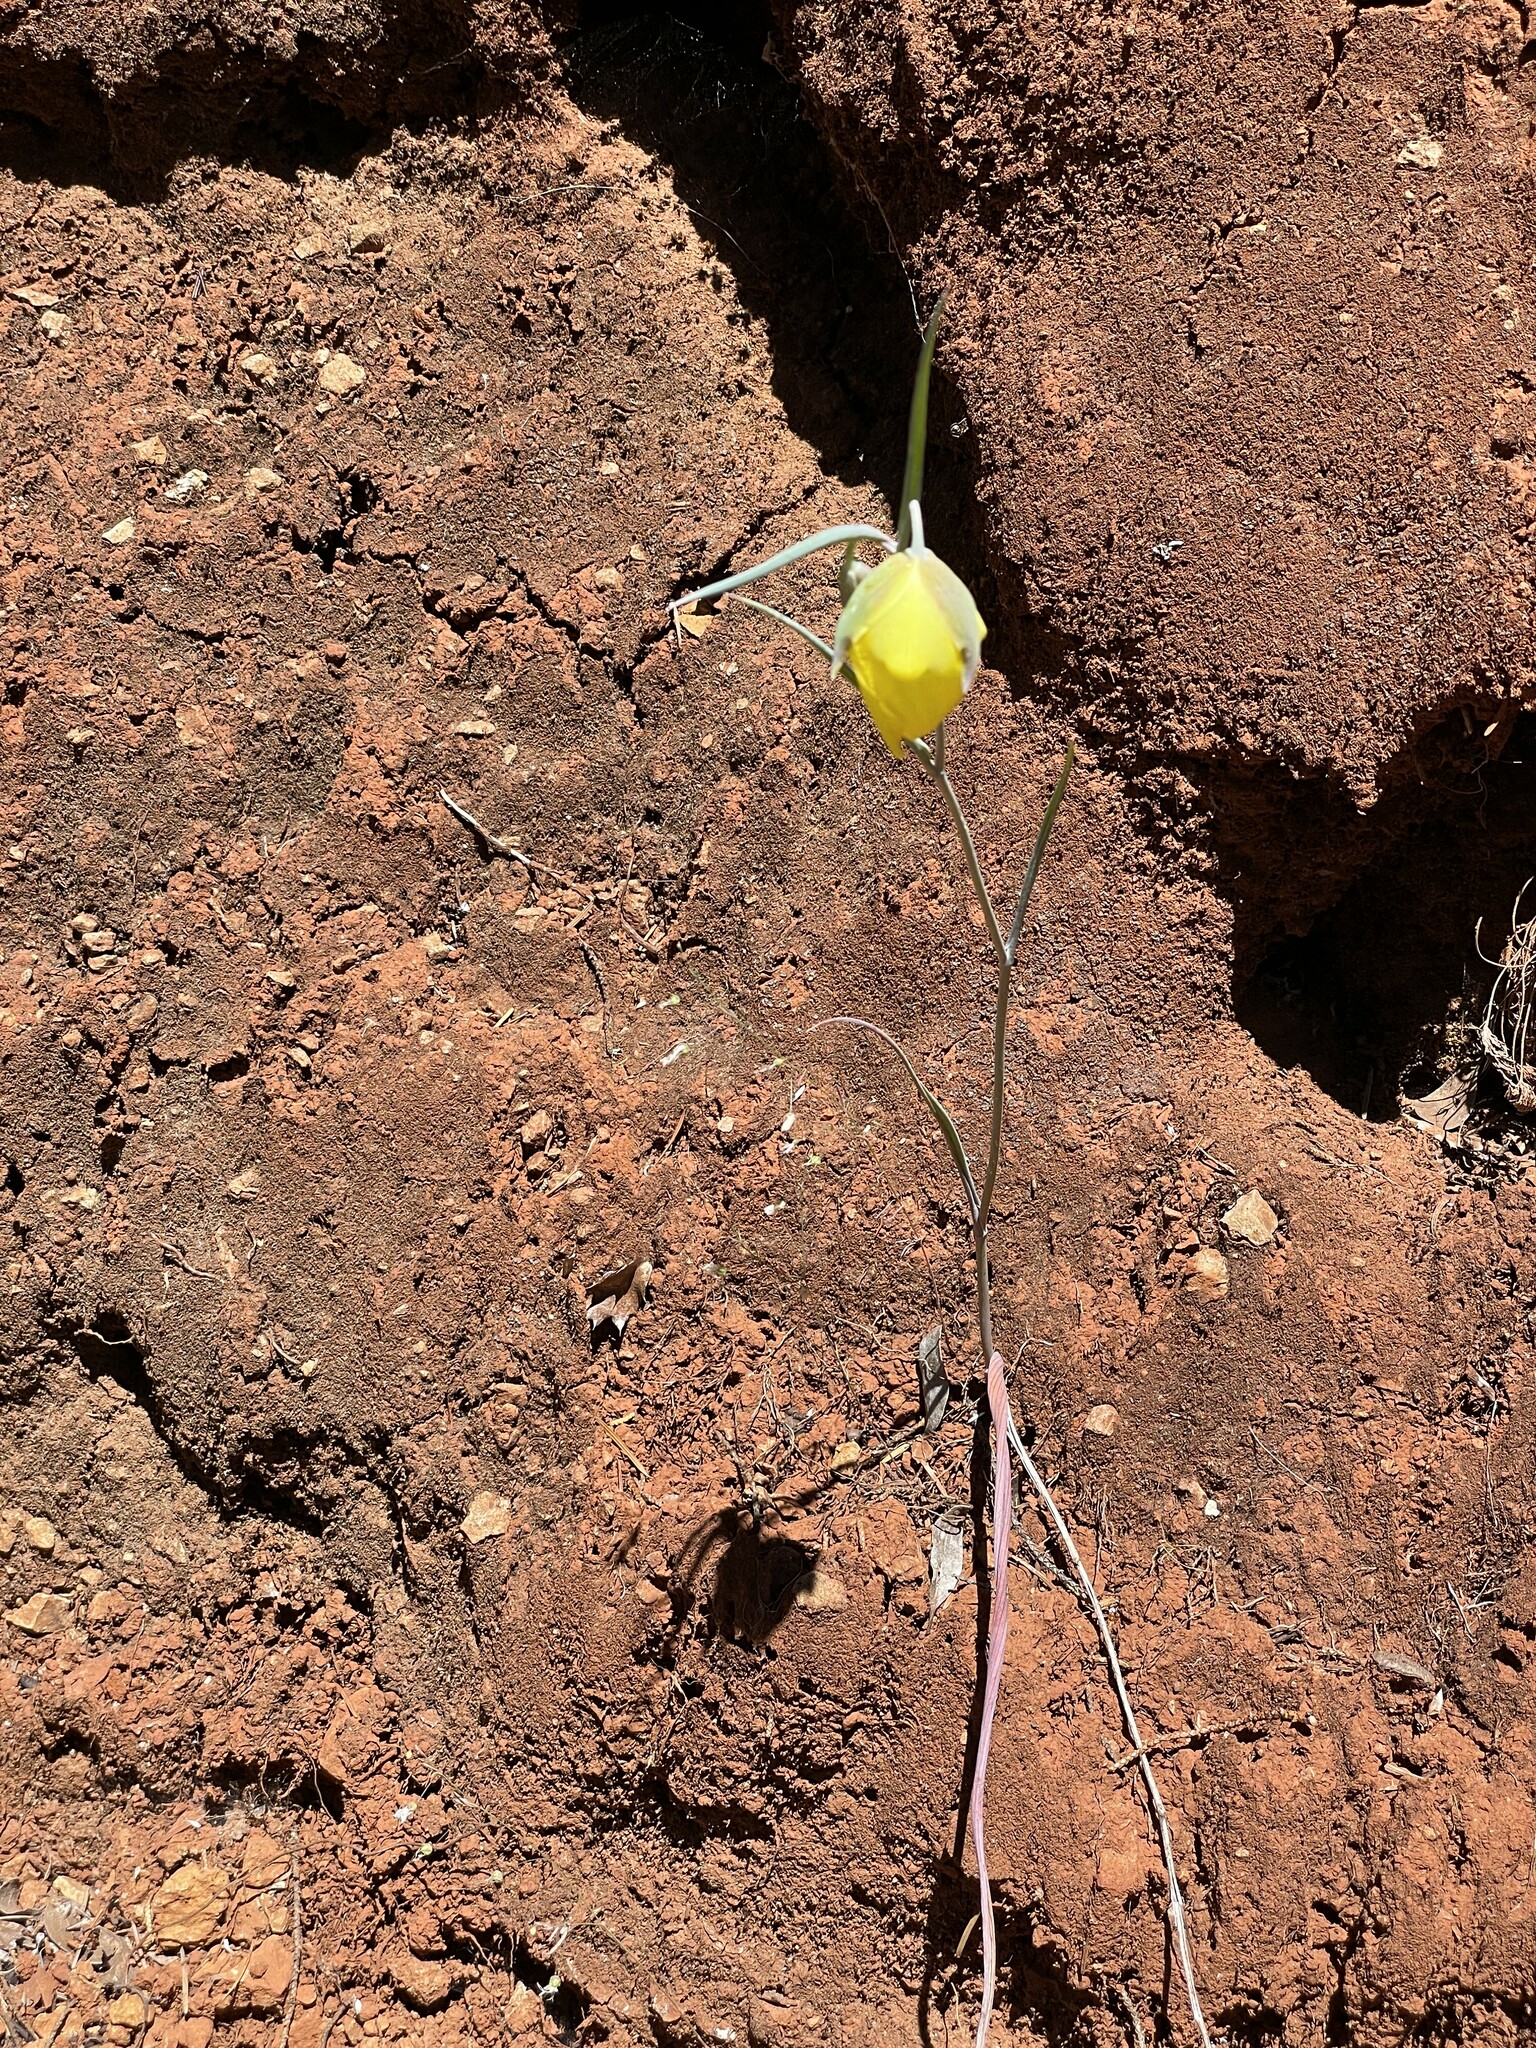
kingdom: Plantae
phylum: Tracheophyta
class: Liliopsida
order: Liliales
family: Liliaceae
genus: Calochortus
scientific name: Calochortus raichei
